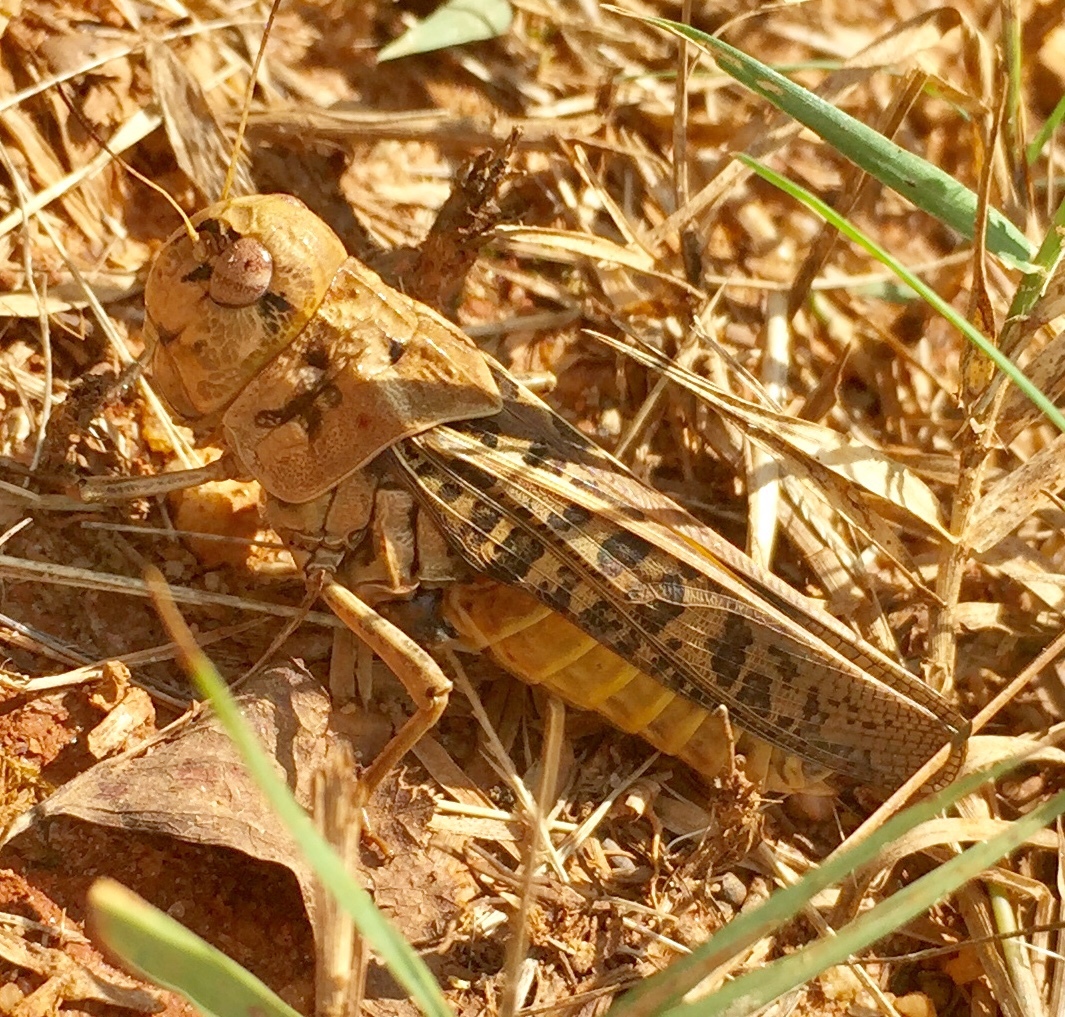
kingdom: Animalia
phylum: Arthropoda
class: Insecta
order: Orthoptera
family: Acrididae
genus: Hippiscus
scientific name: Hippiscus ocelote
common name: Wrinkled grasshopper
